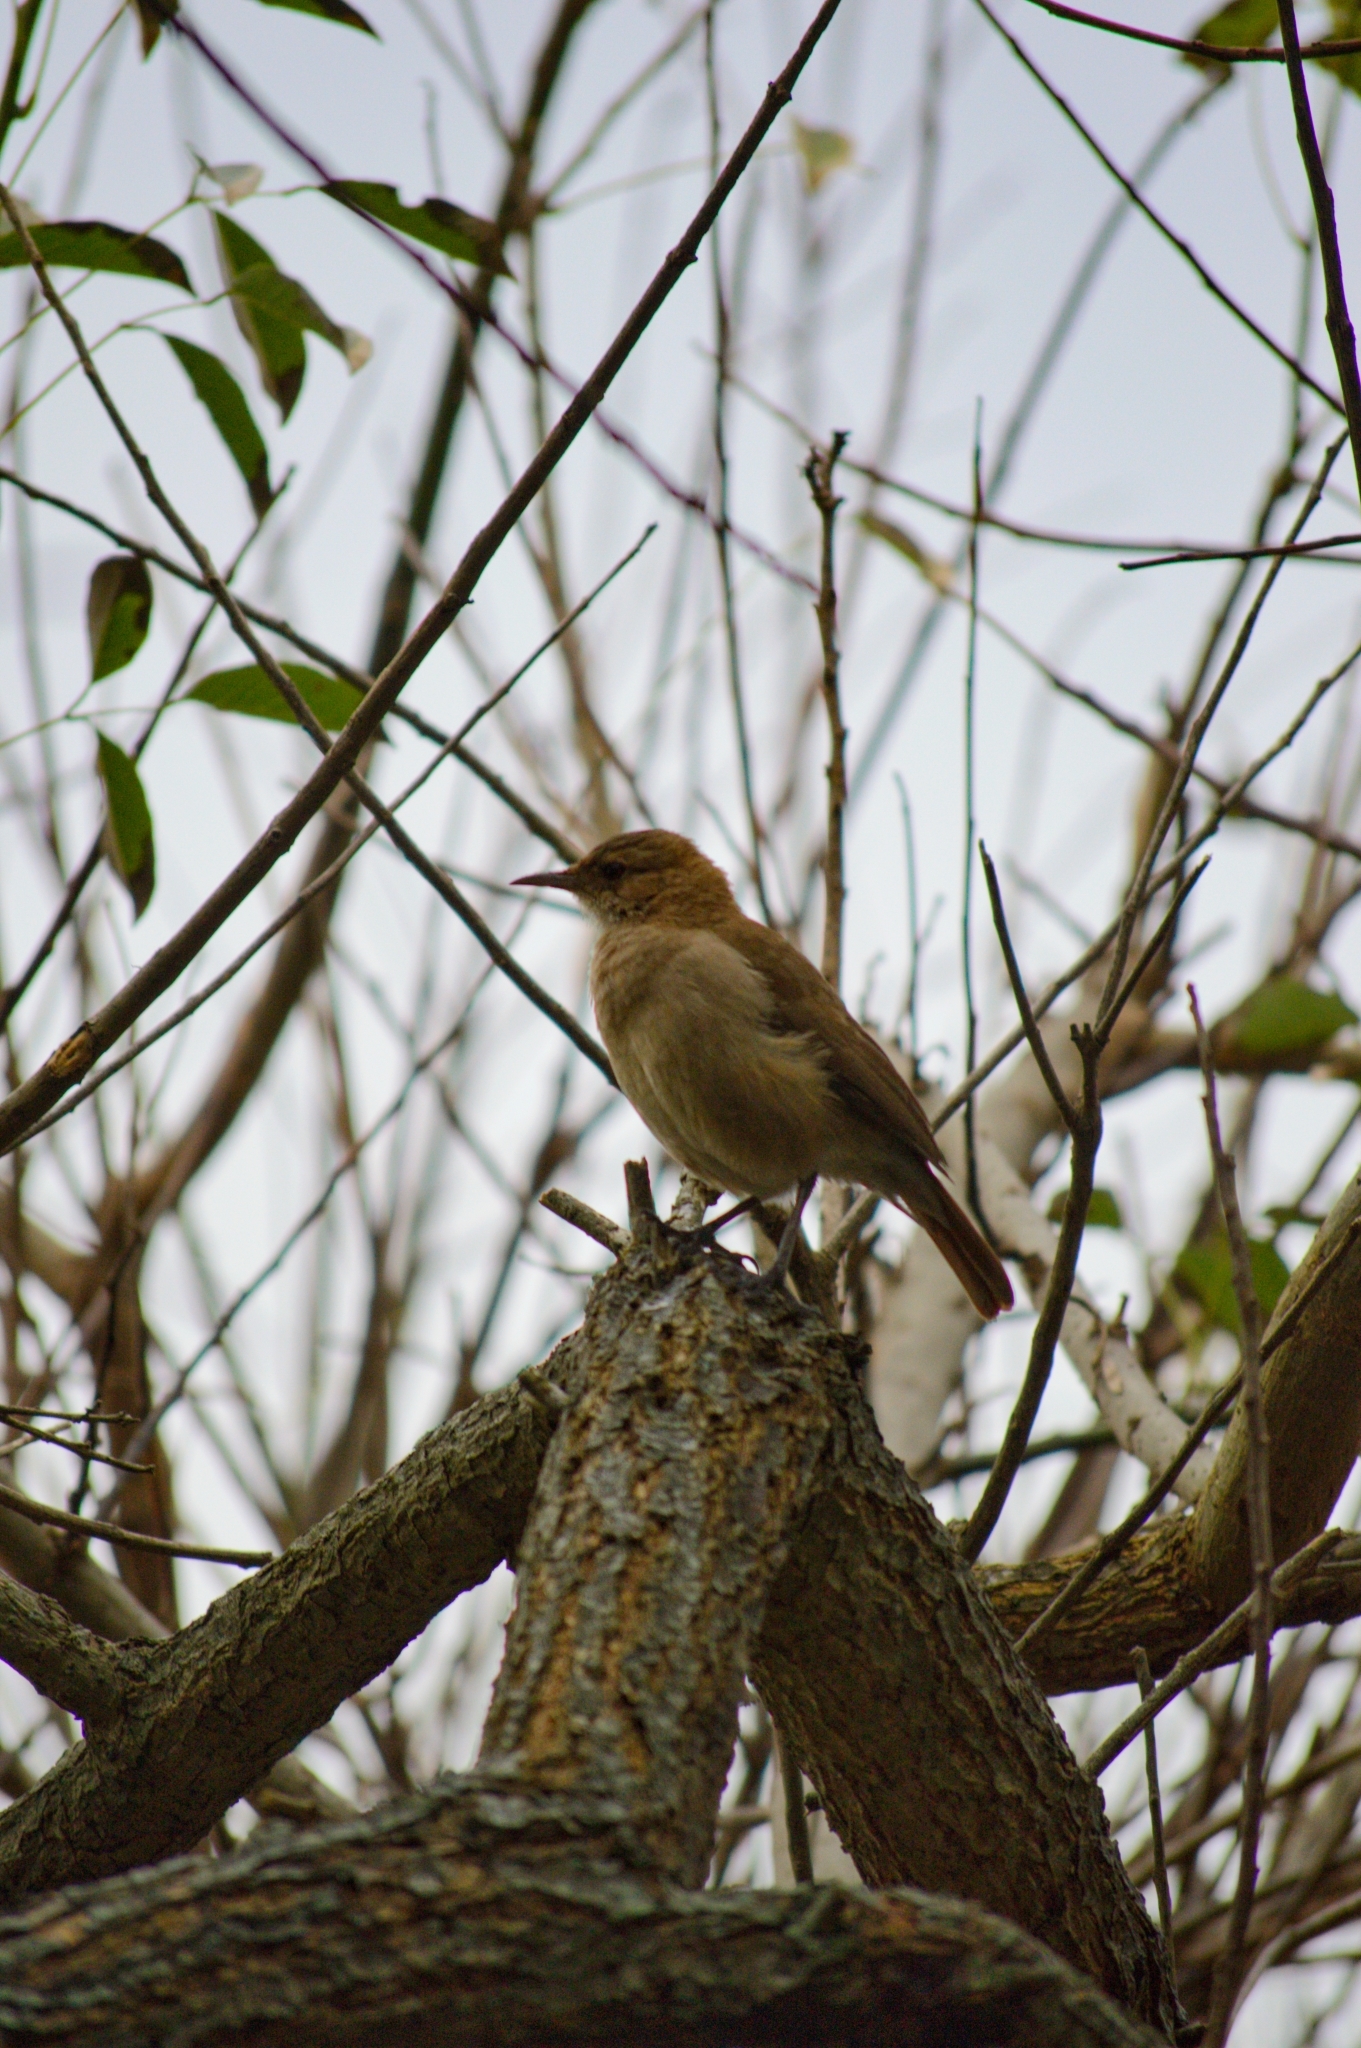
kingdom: Animalia
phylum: Chordata
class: Aves
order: Passeriformes
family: Furnariidae
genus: Furnarius
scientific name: Furnarius rufus
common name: Rufous hornero
